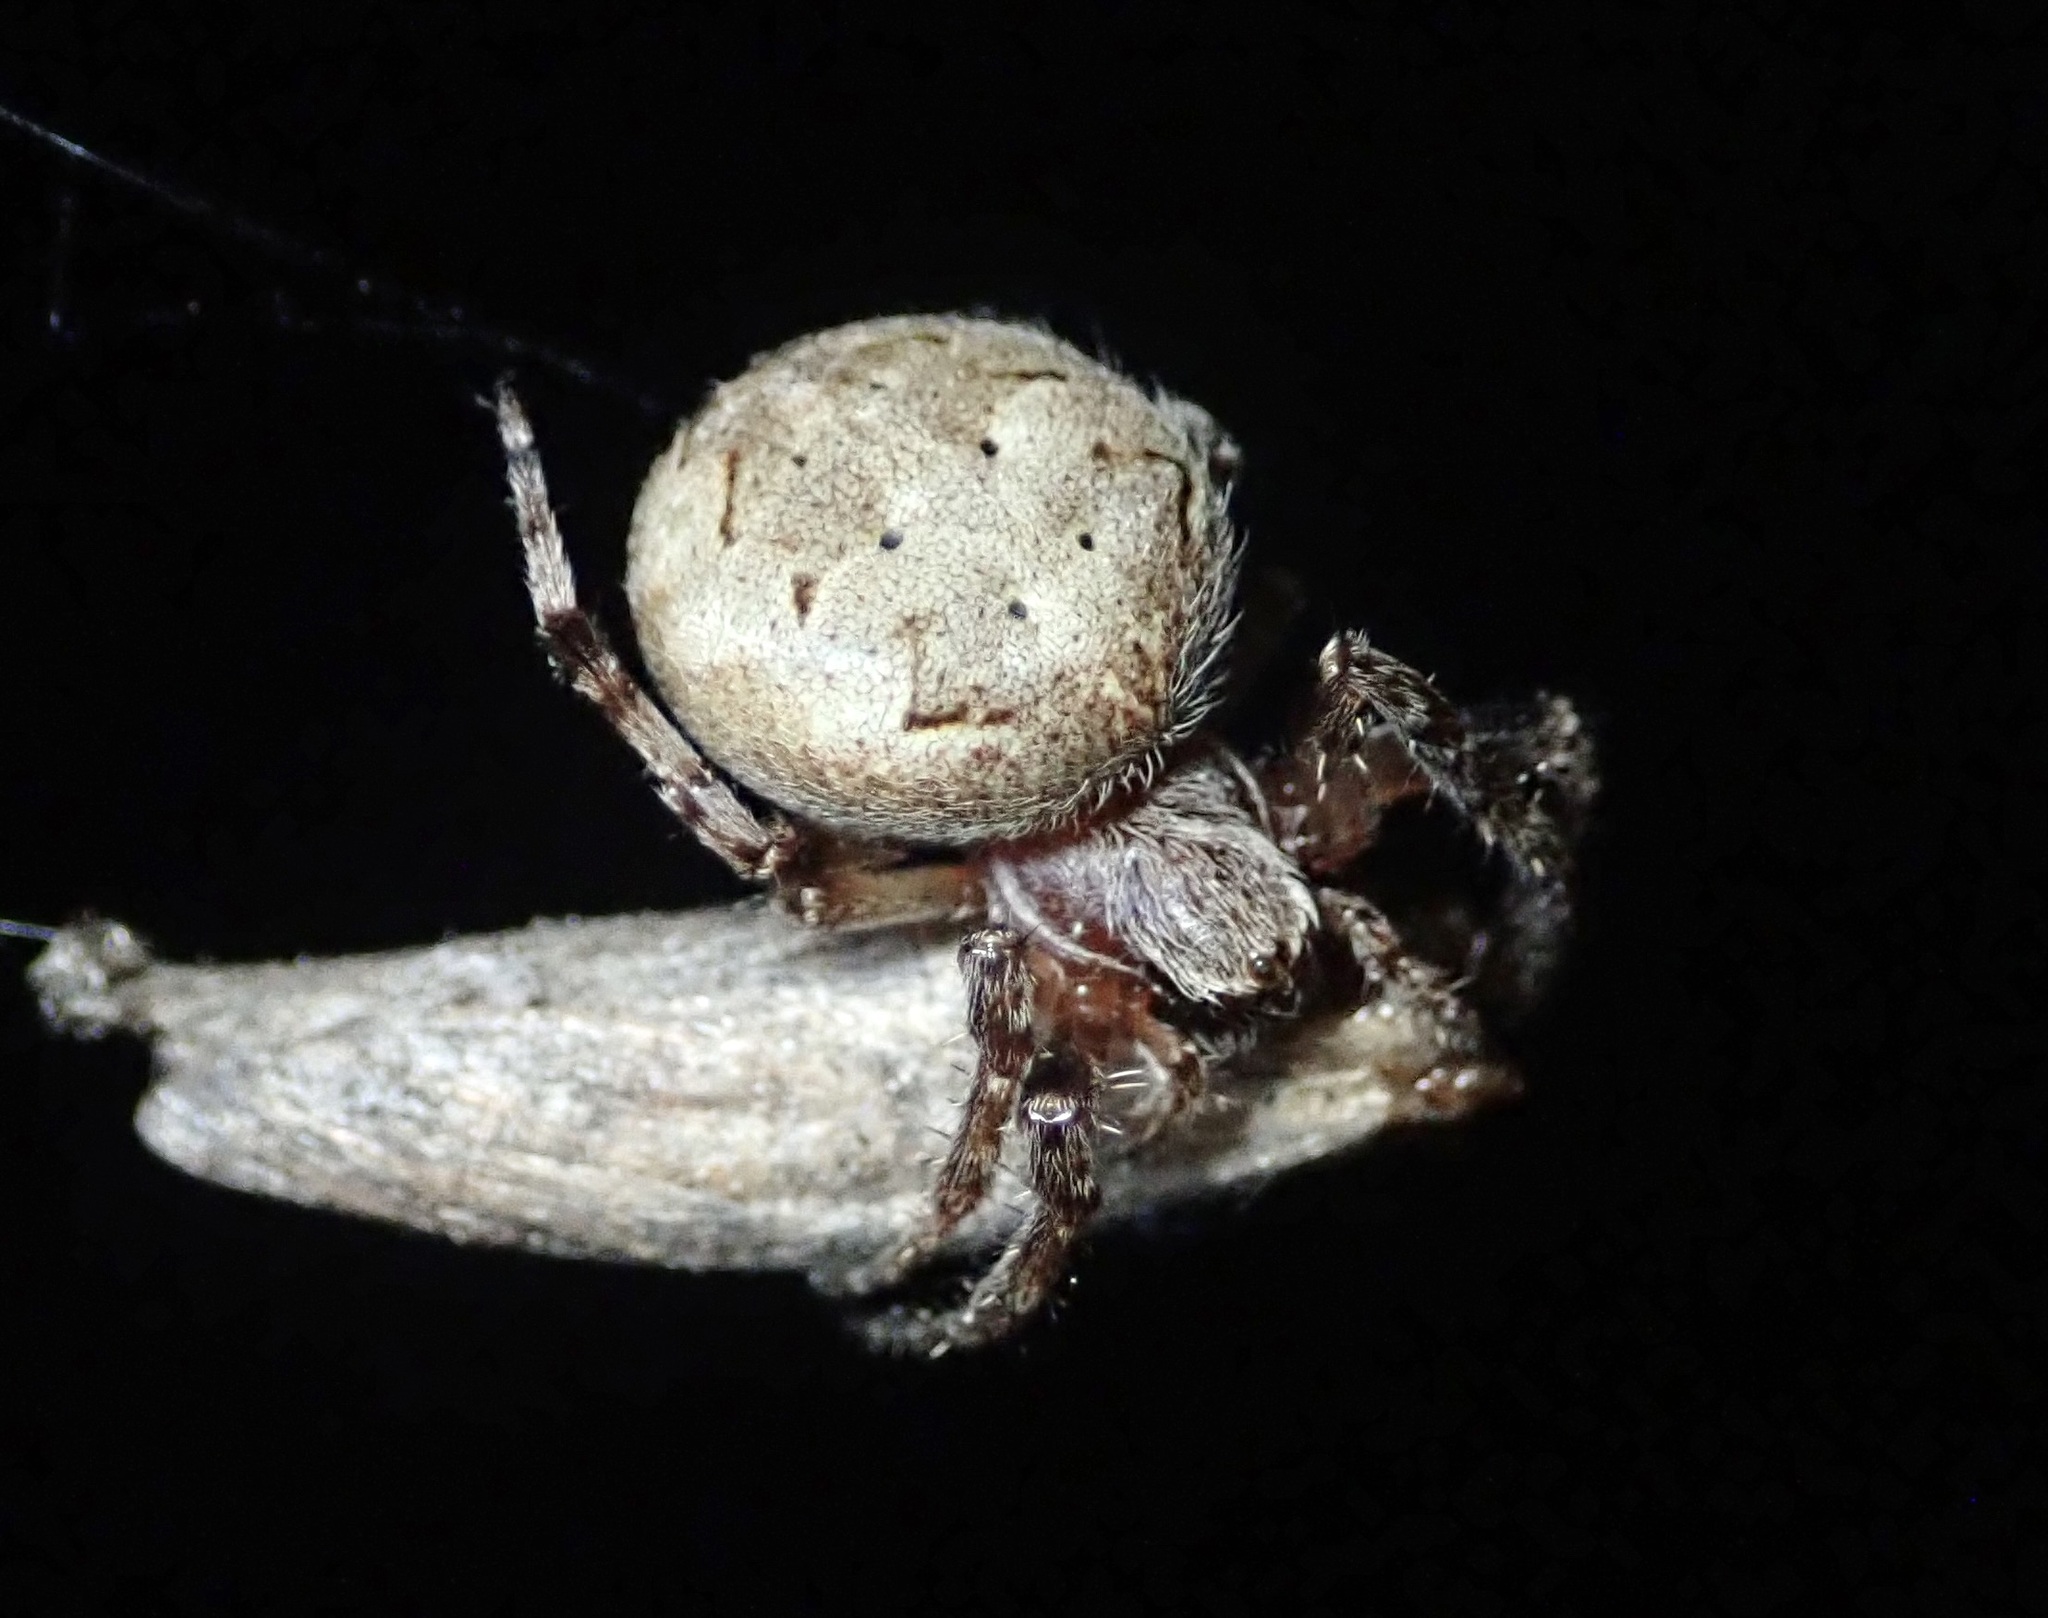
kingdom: Animalia
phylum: Arthropoda
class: Arachnida
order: Araneae
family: Araneidae
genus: Larinioides
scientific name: Larinioides patagiatus
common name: Ornamental orbweaver
